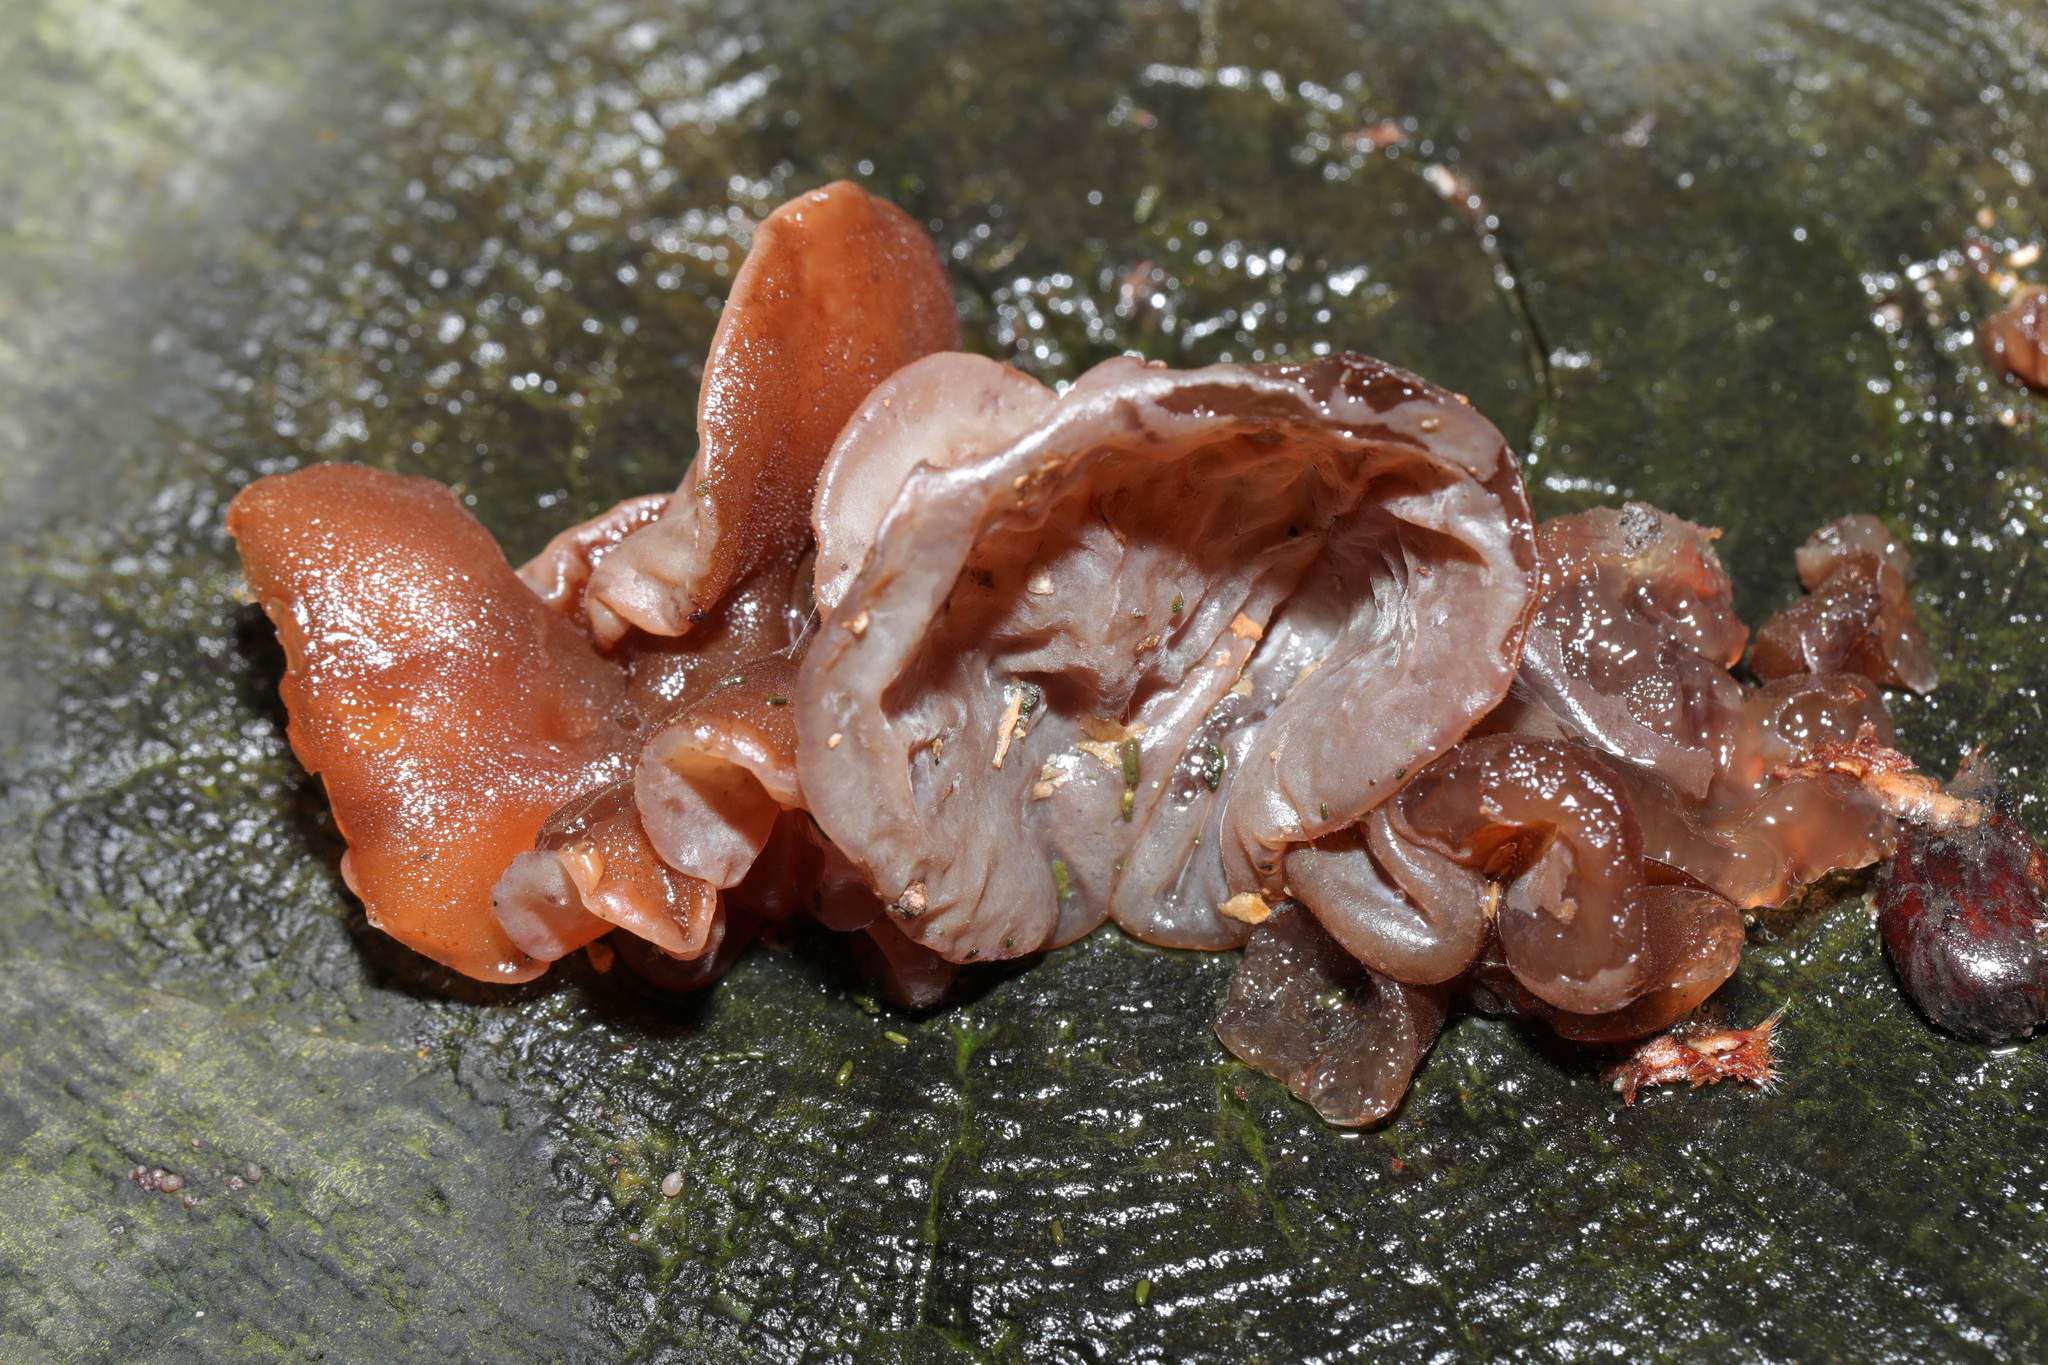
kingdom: Fungi
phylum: Basidiomycota
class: Agaricomycetes
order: Auriculariales
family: Auriculariaceae
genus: Auricularia
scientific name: Auricularia auricula-judae
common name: Jelly ear
